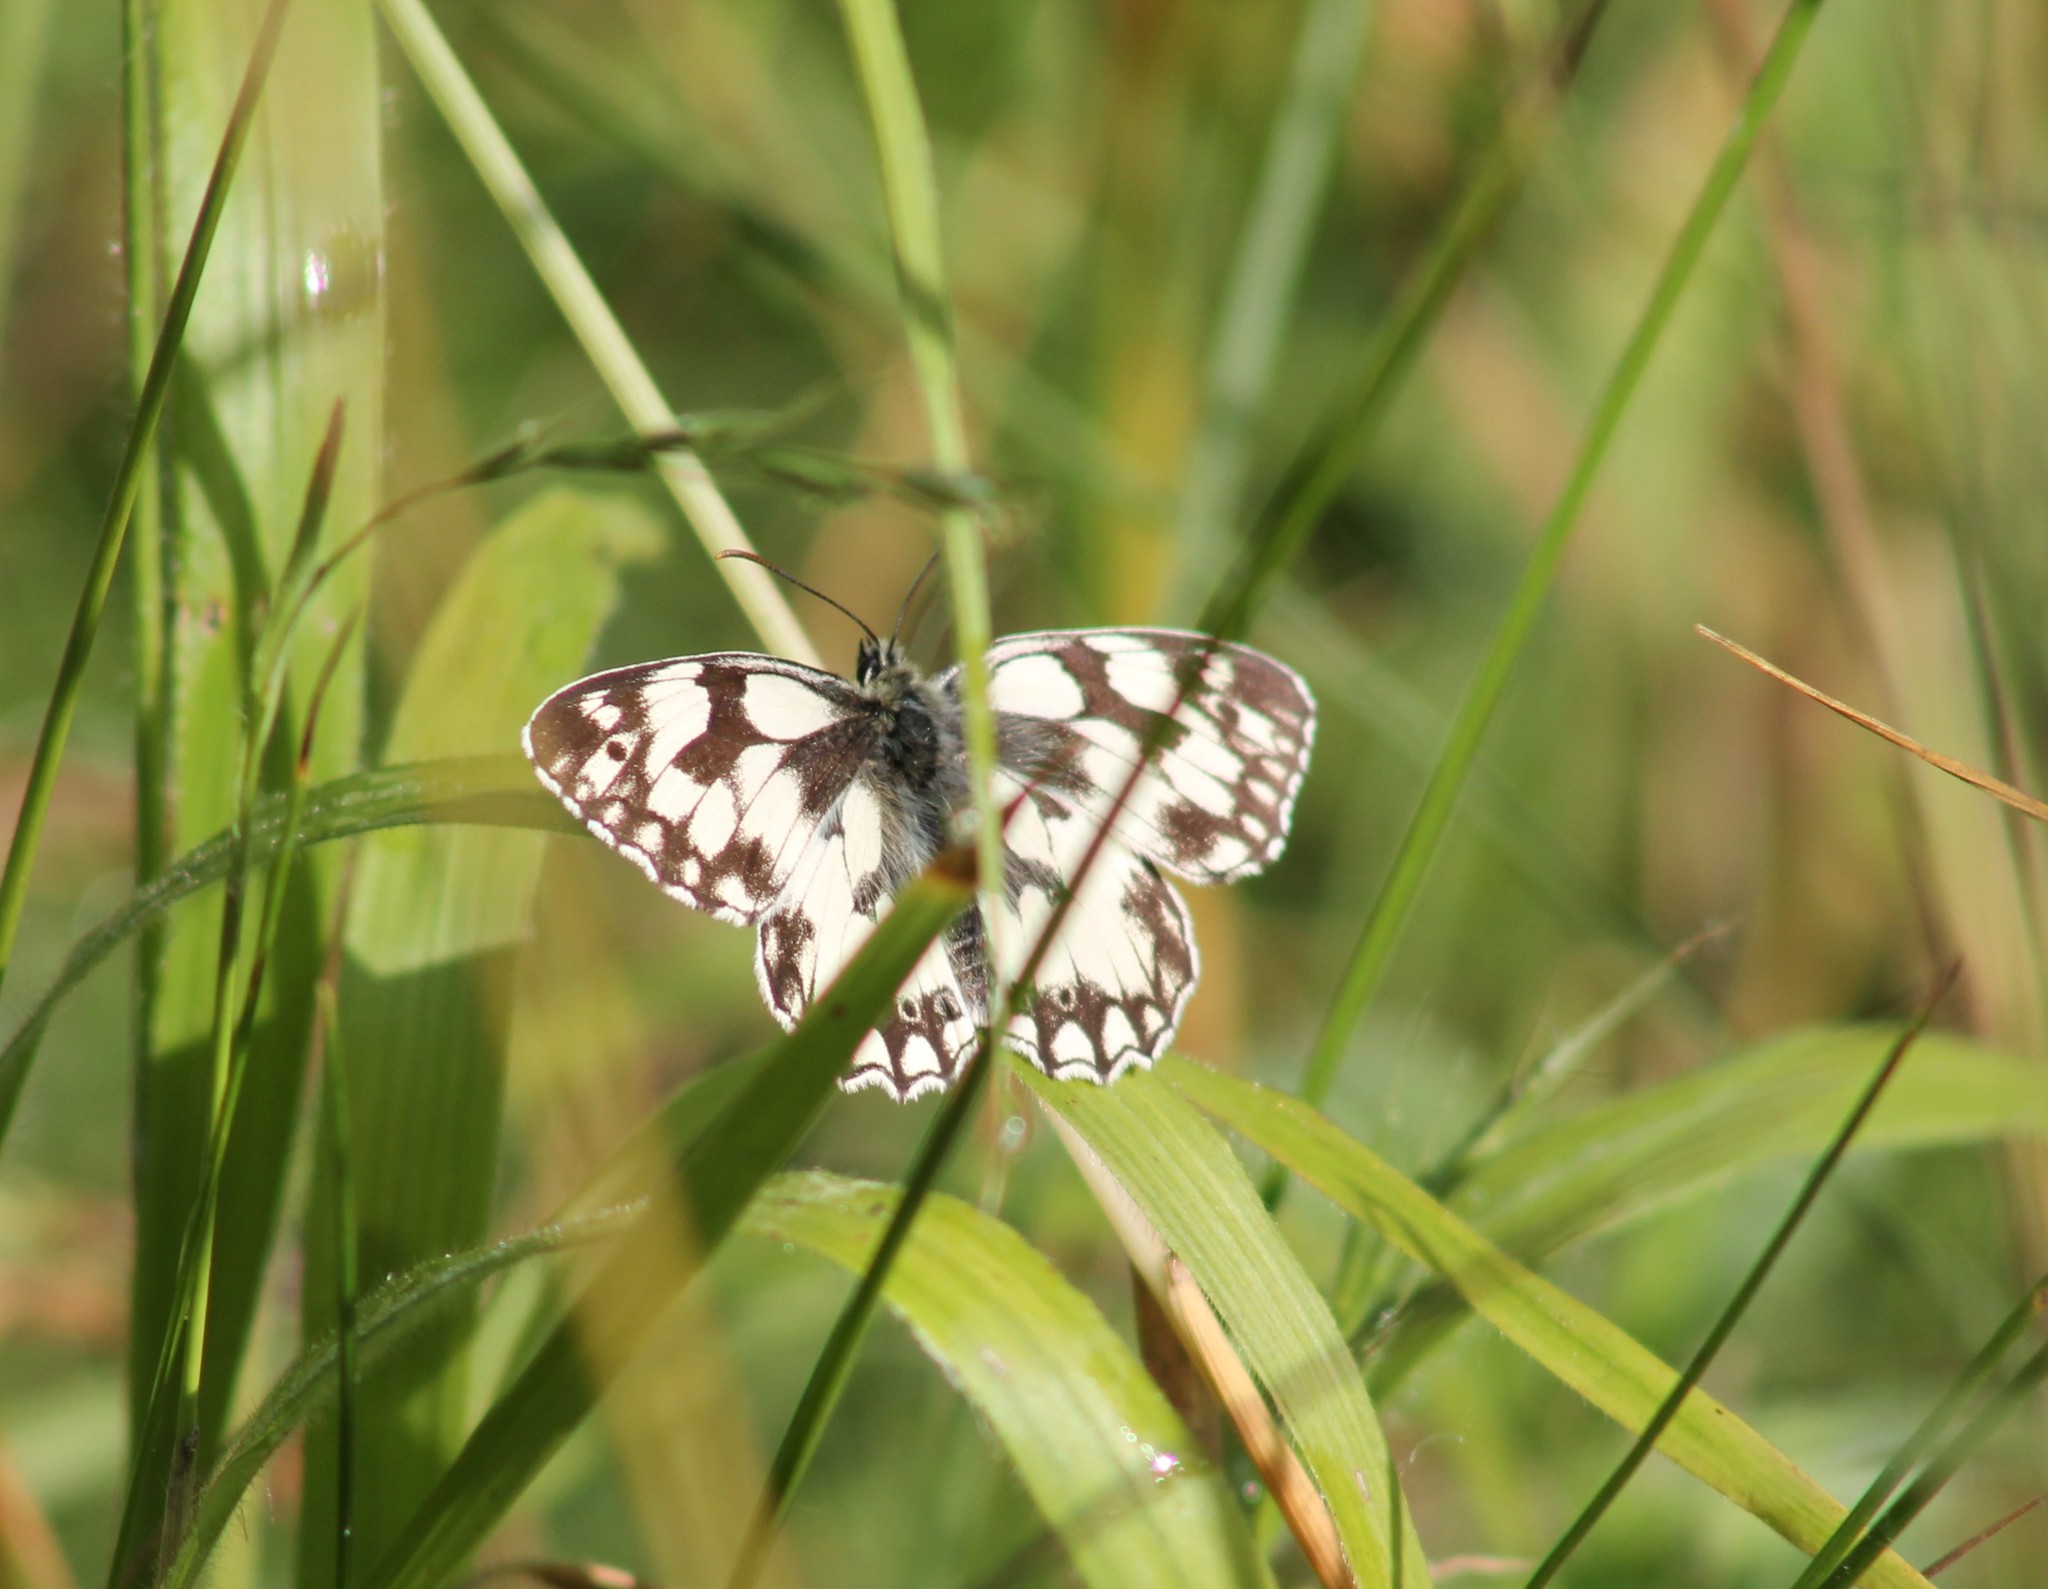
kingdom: Animalia
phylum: Arthropoda
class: Insecta
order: Lepidoptera
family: Nymphalidae
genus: Melanargia
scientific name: Melanargia galathea
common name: Marbled white
